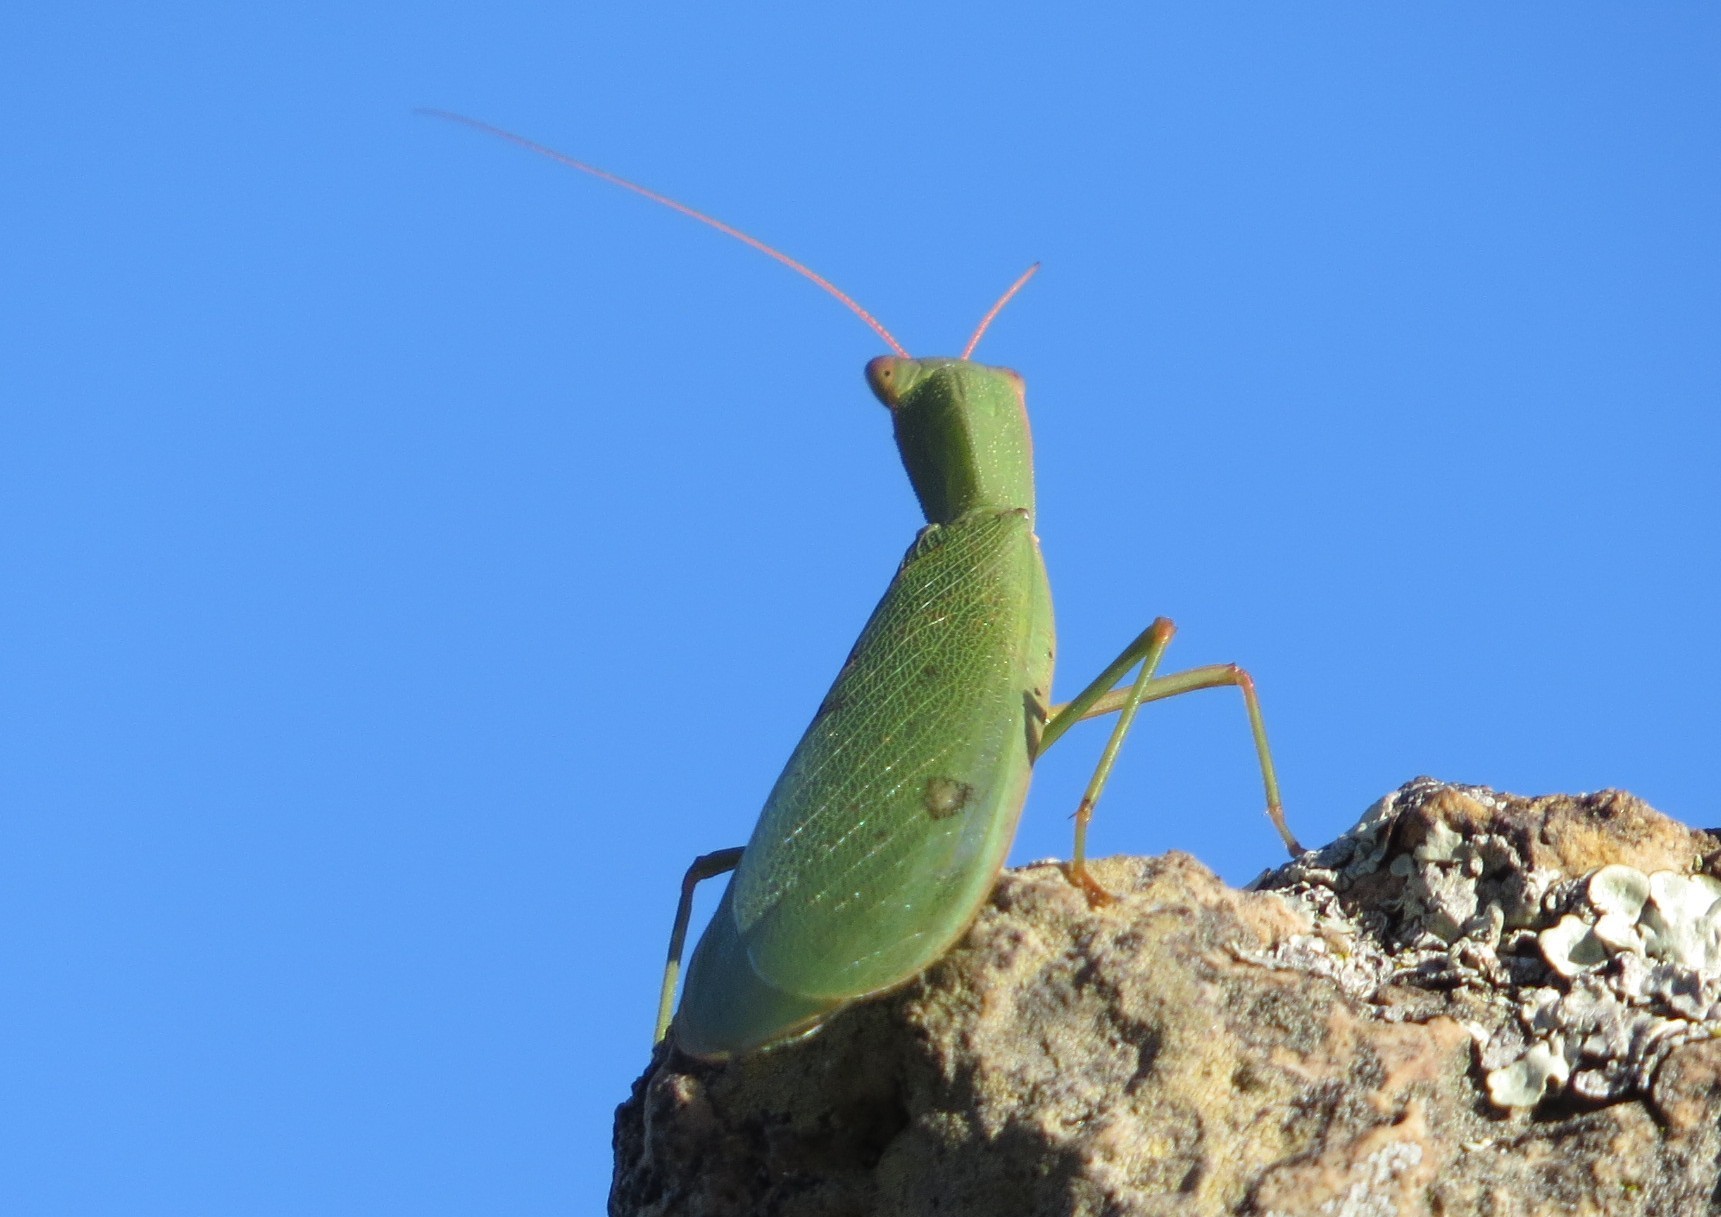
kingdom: Animalia
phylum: Arthropoda
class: Insecta
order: Mantodea
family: Mantidae
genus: Orthodera
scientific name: Orthodera novaezealandiae
